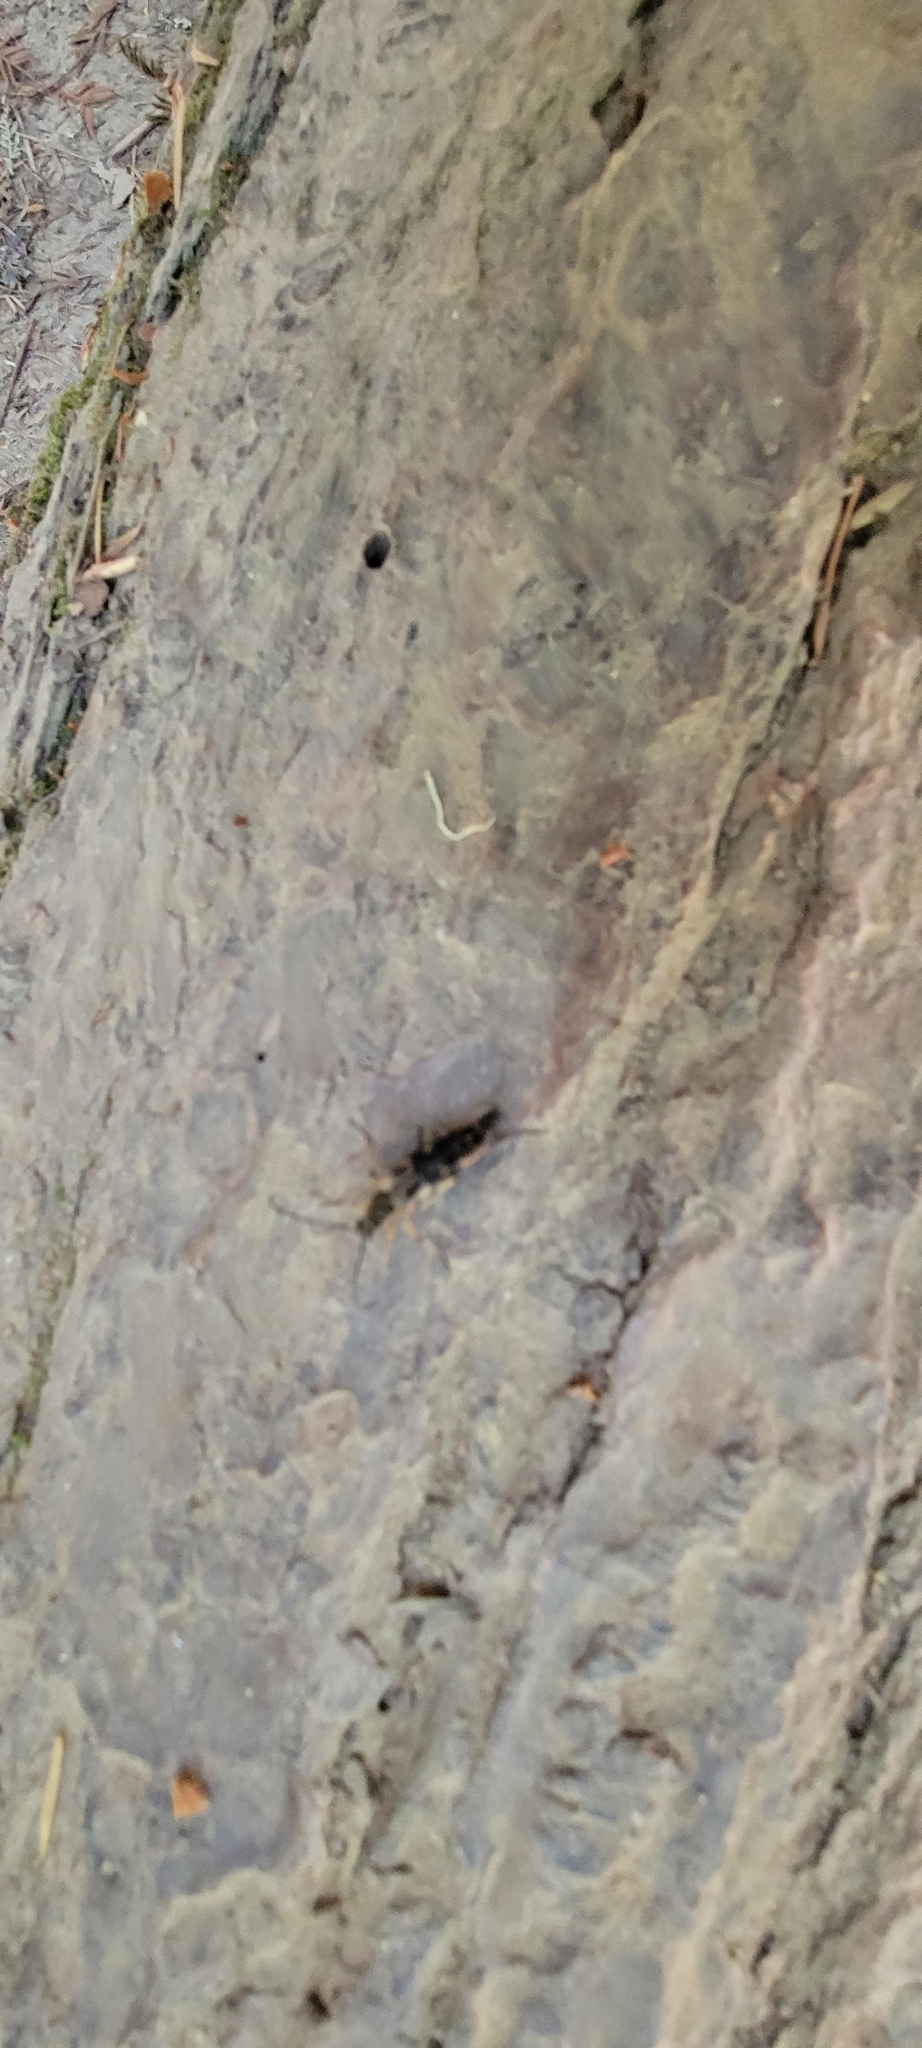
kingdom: Animalia
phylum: Arthropoda
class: Insecta
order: Coleoptera
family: Cerambycidae
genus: Etorofus
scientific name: Etorofus obliteratus
